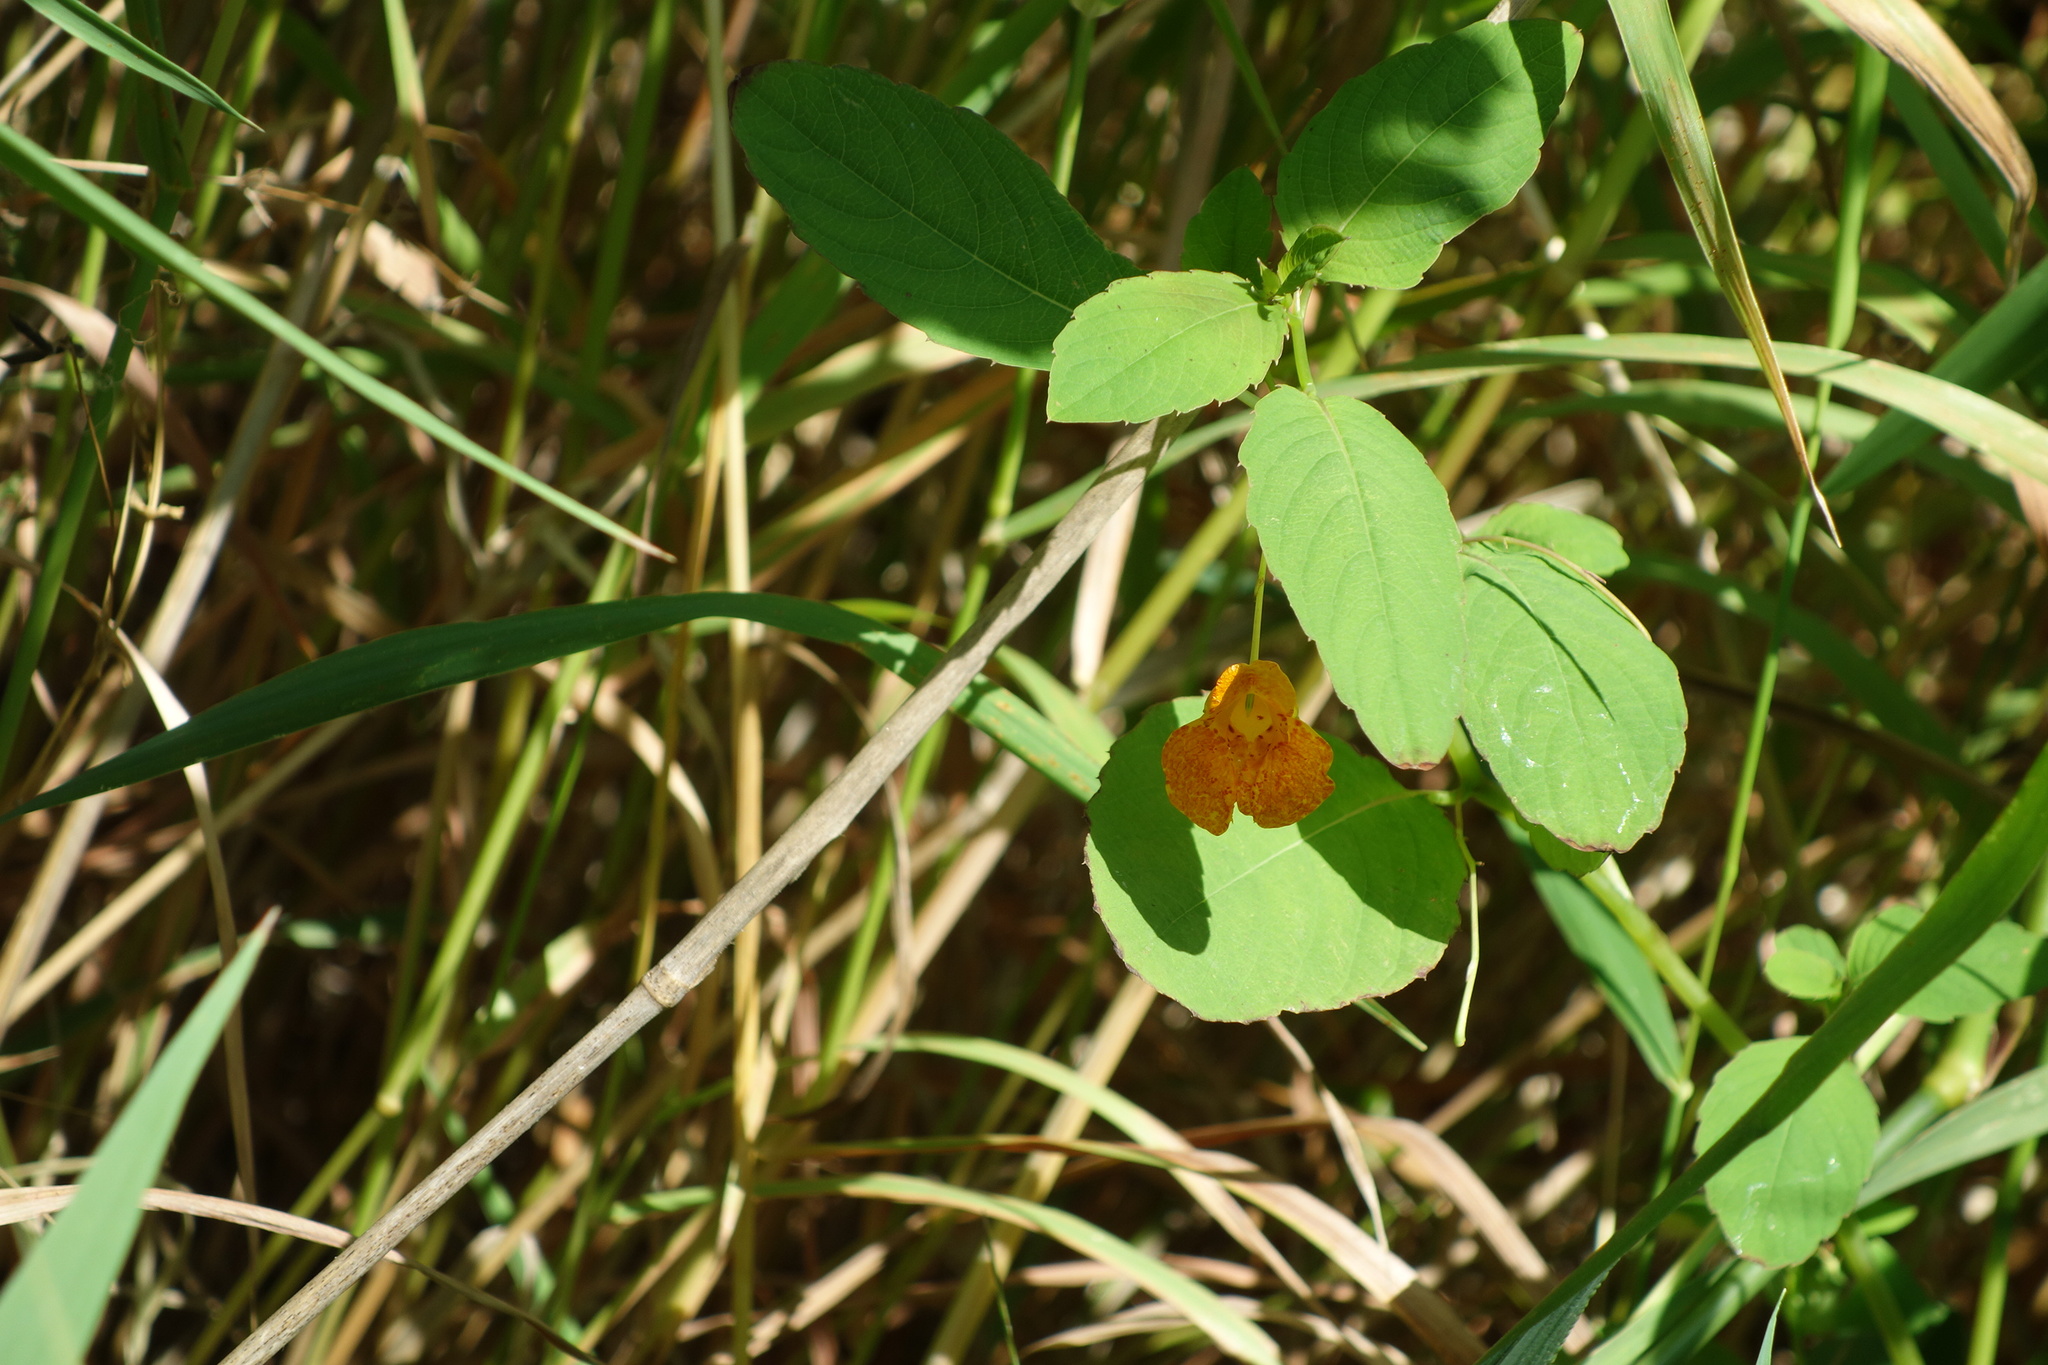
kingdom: Plantae
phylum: Tracheophyta
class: Magnoliopsida
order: Ericales
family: Balsaminaceae
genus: Impatiens
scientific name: Impatiens capensis
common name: Orange balsam
